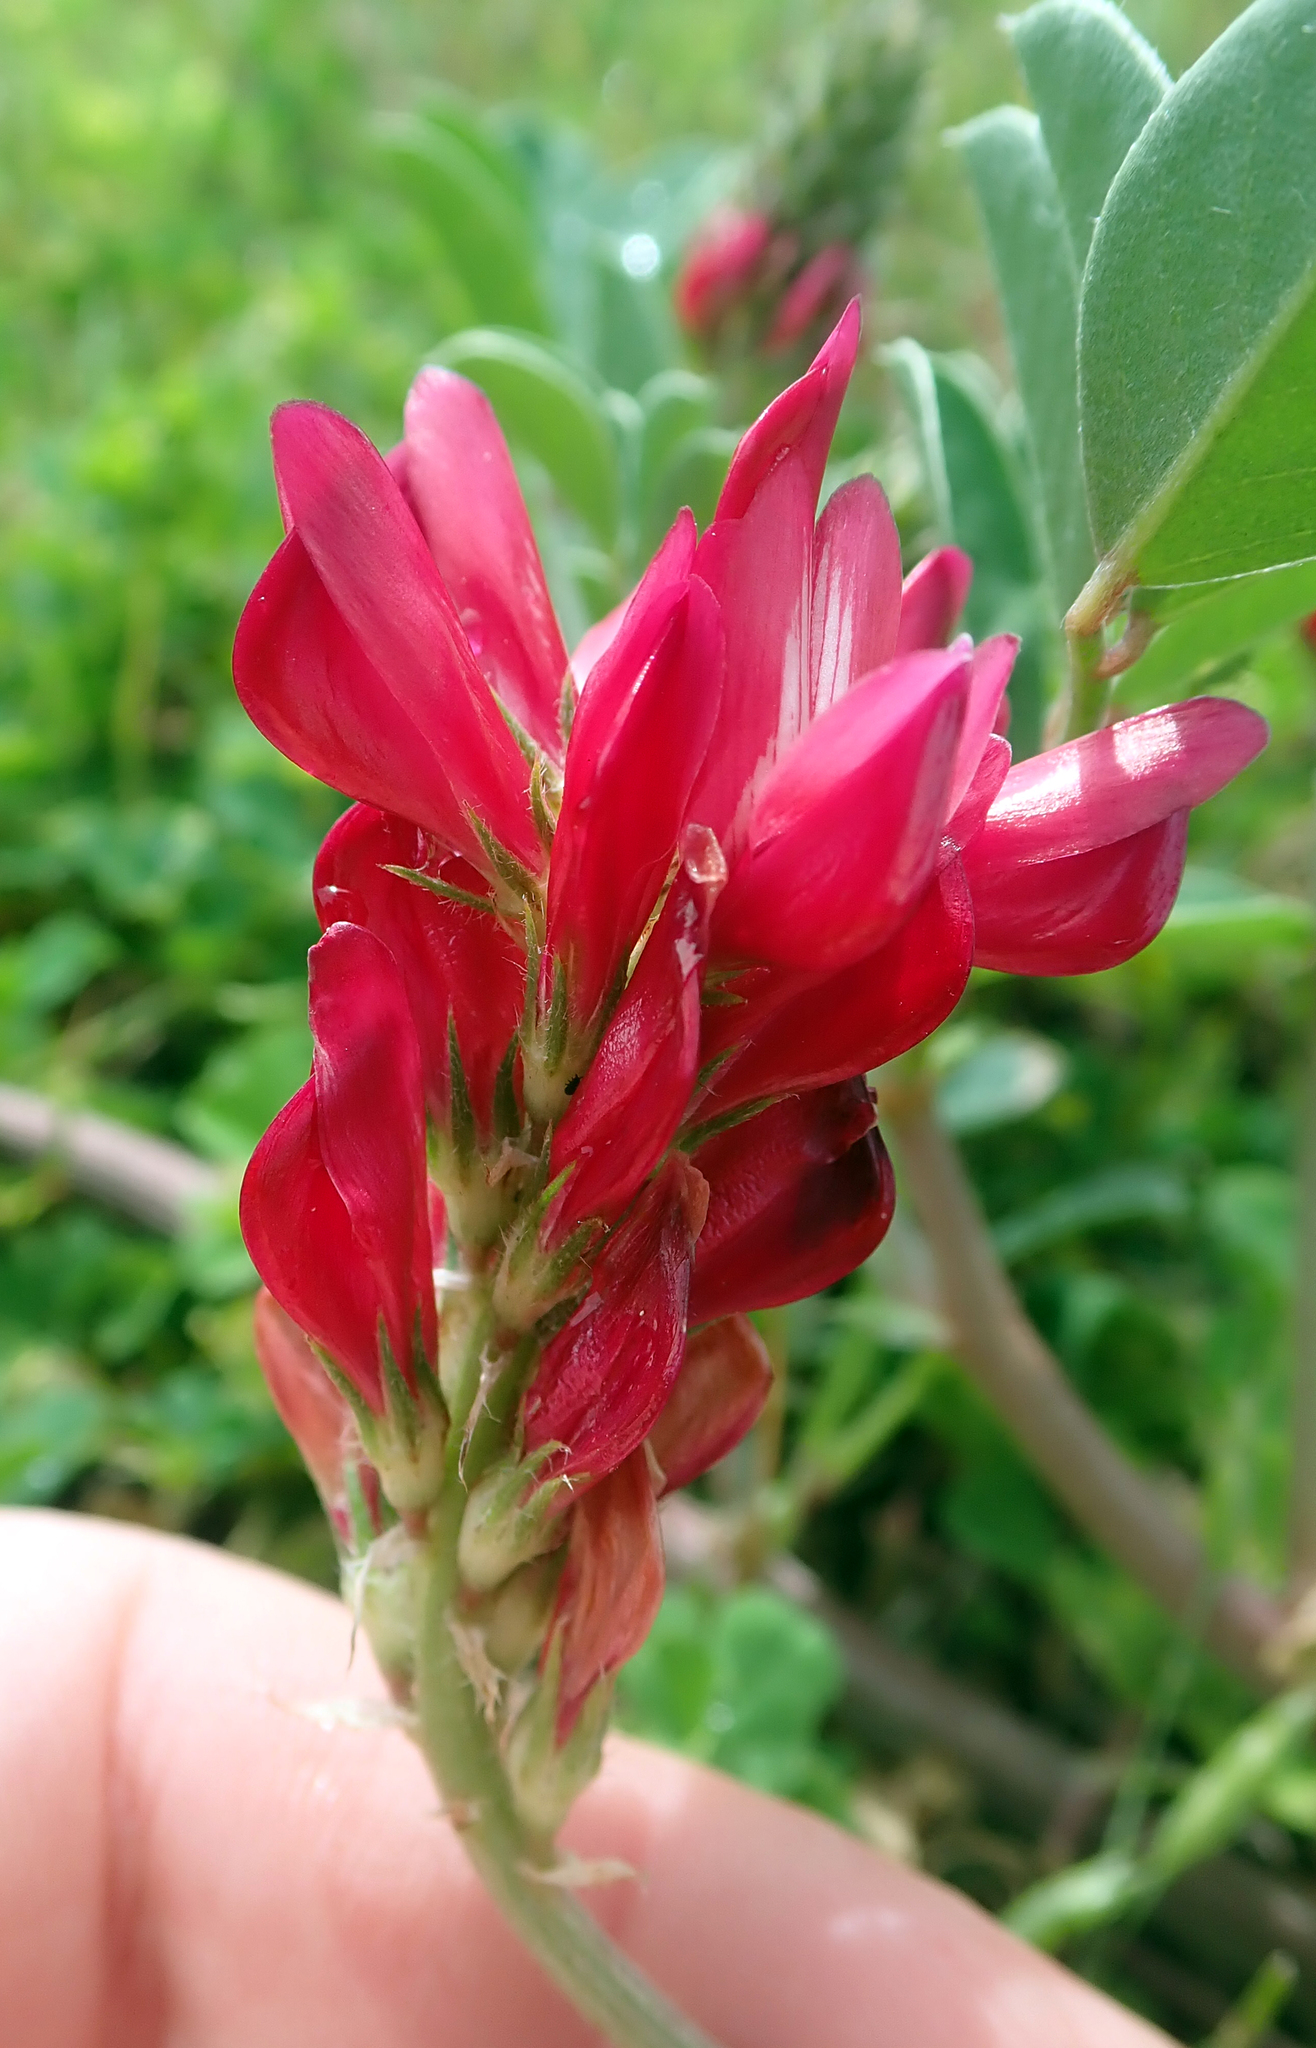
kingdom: Plantae
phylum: Tracheophyta
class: Magnoliopsida
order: Fabales
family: Fabaceae
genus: Sulla
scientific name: Sulla coronaria
